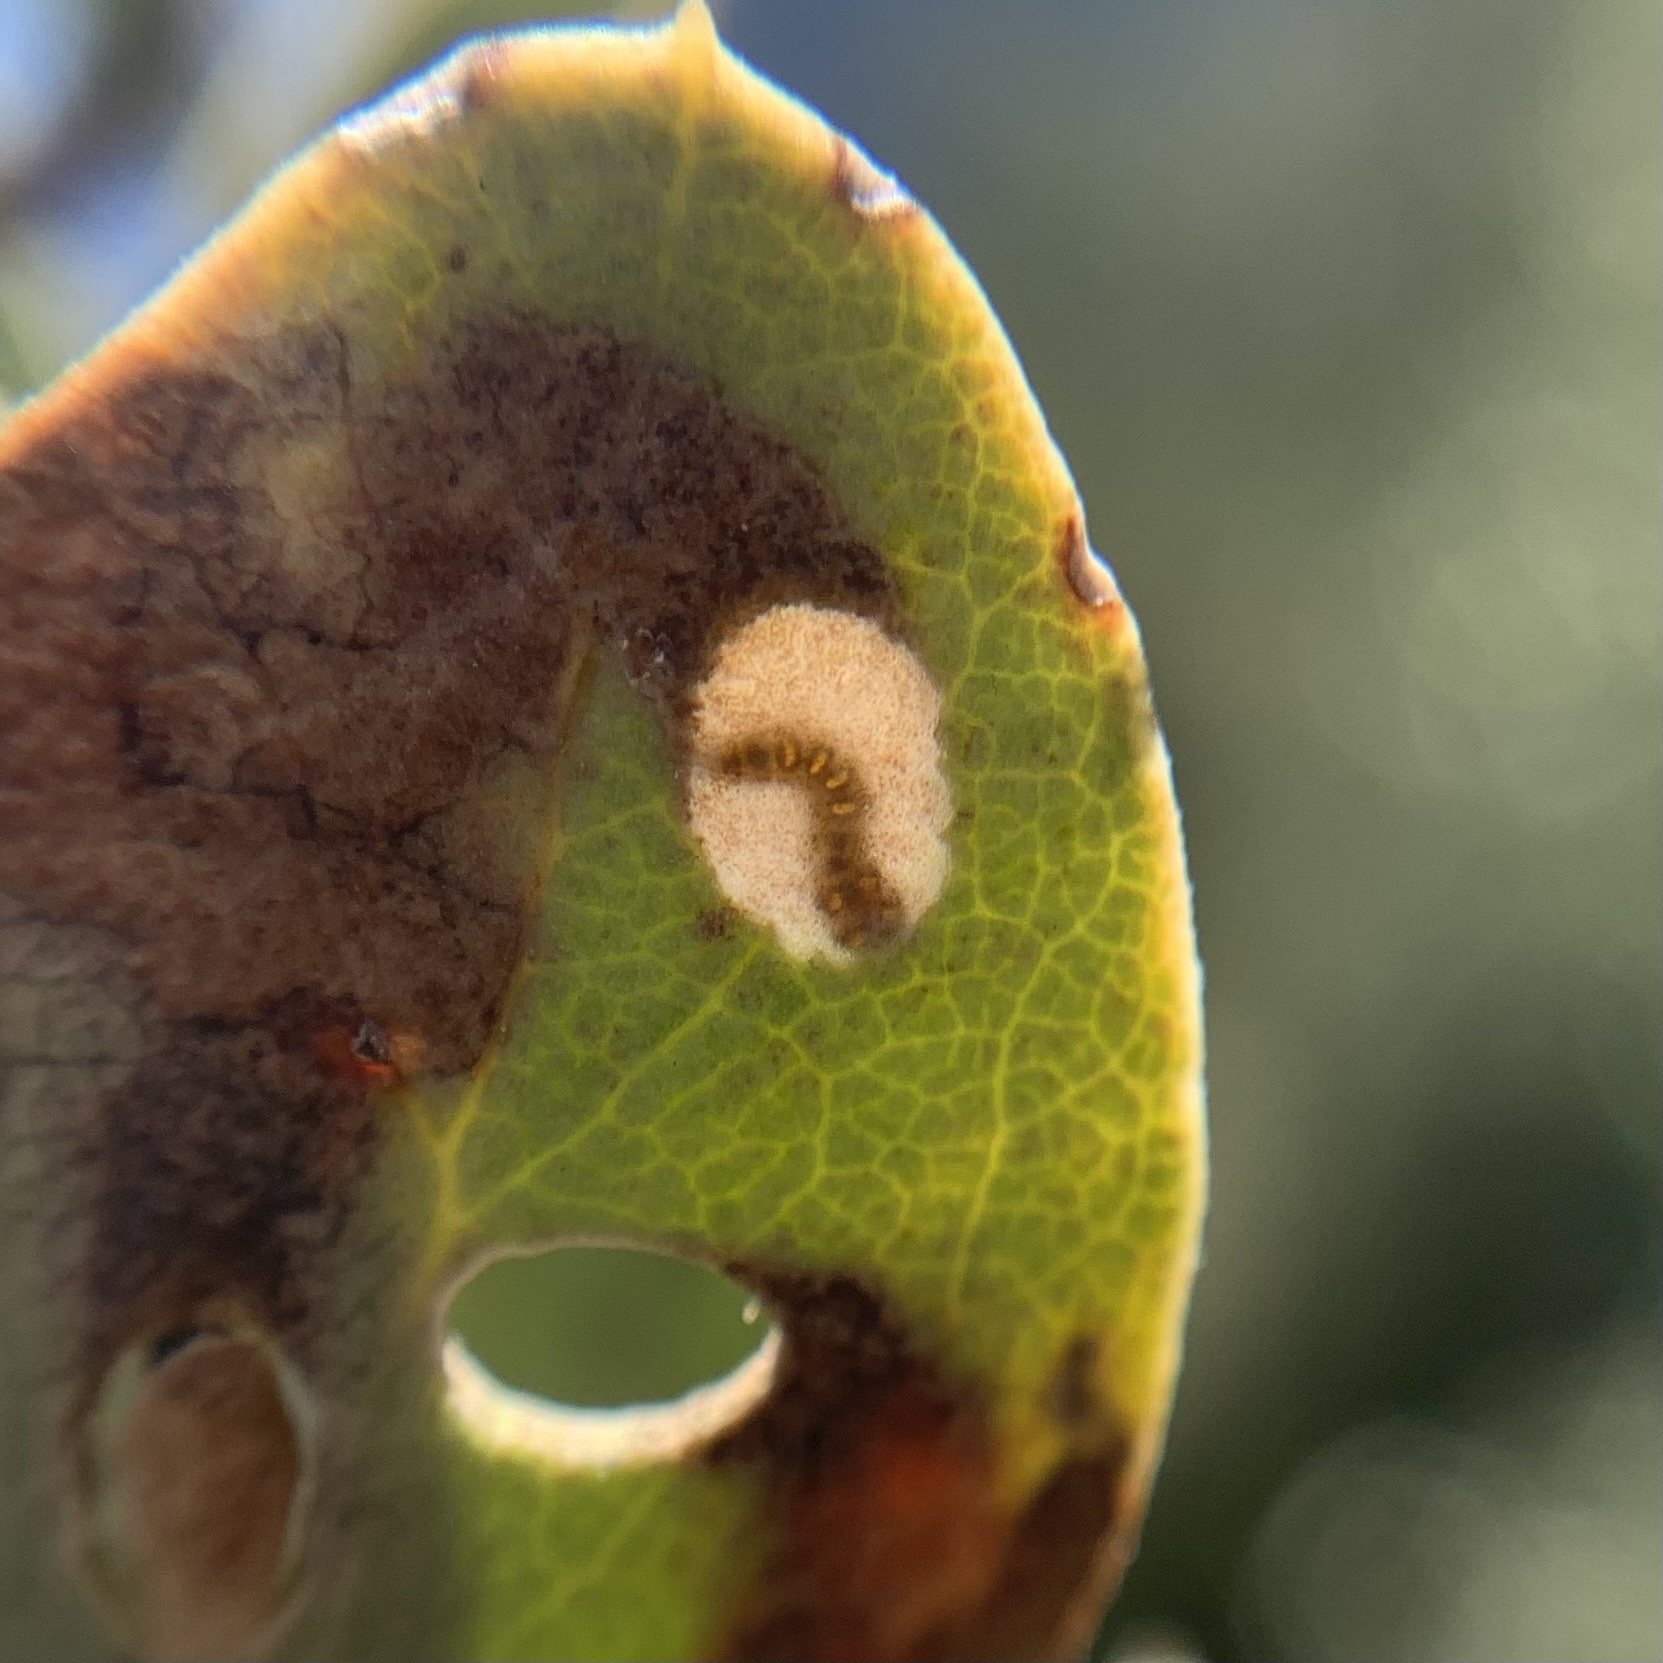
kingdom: Animalia
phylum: Arthropoda
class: Insecta
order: Lepidoptera
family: Heliozelidae
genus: Coptodisca
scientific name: Coptodisca arbutiella
